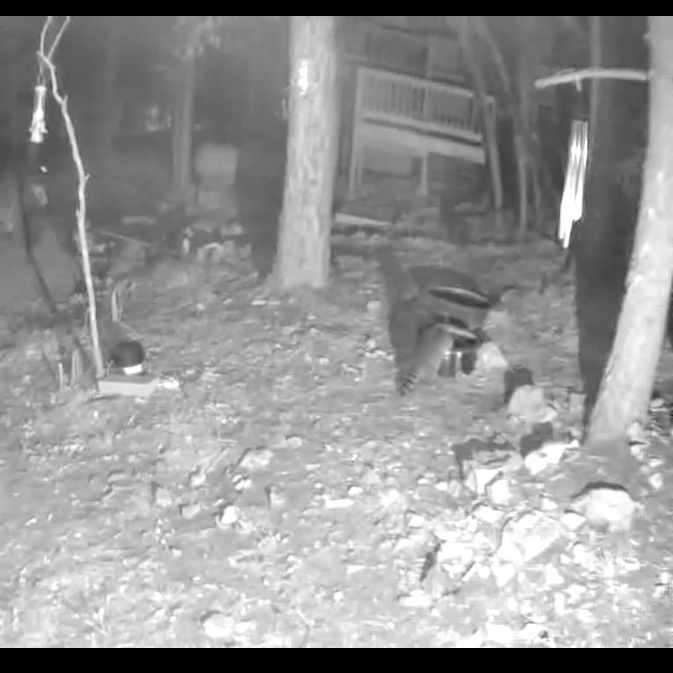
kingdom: Animalia
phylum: Chordata
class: Mammalia
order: Carnivora
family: Procyonidae
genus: Procyon
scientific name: Procyon lotor
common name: Raccoon
